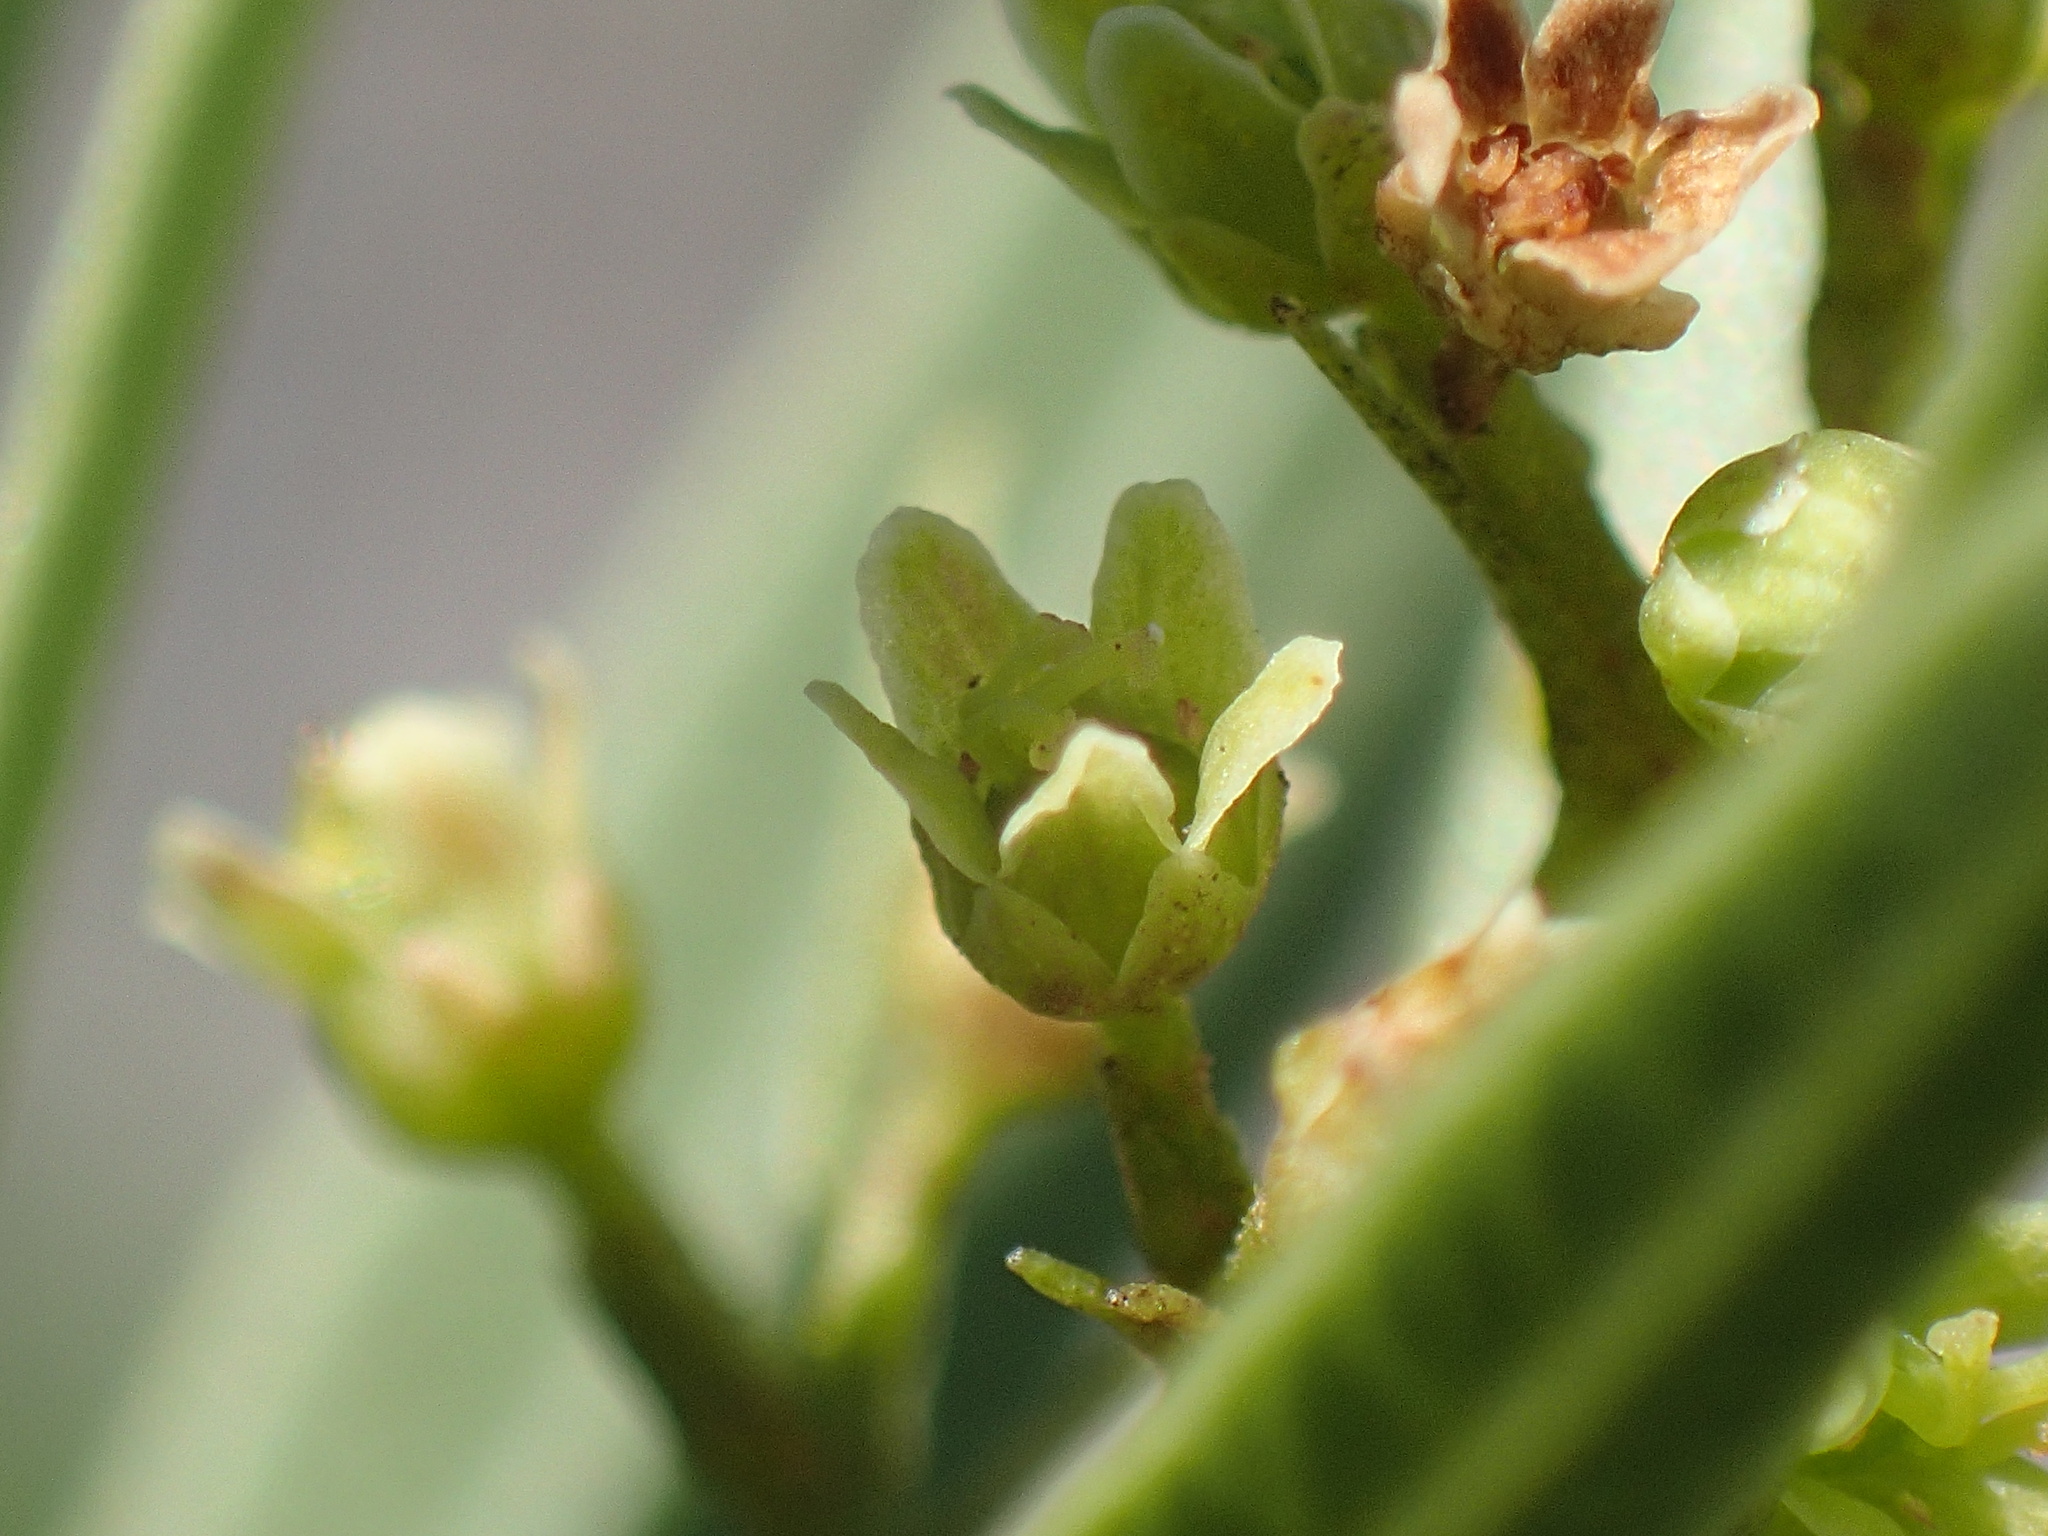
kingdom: Plantae
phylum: Tracheophyta
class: Magnoliopsida
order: Sapindales
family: Anacardiaceae
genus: Searsia
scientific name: Searsia pondoensis
